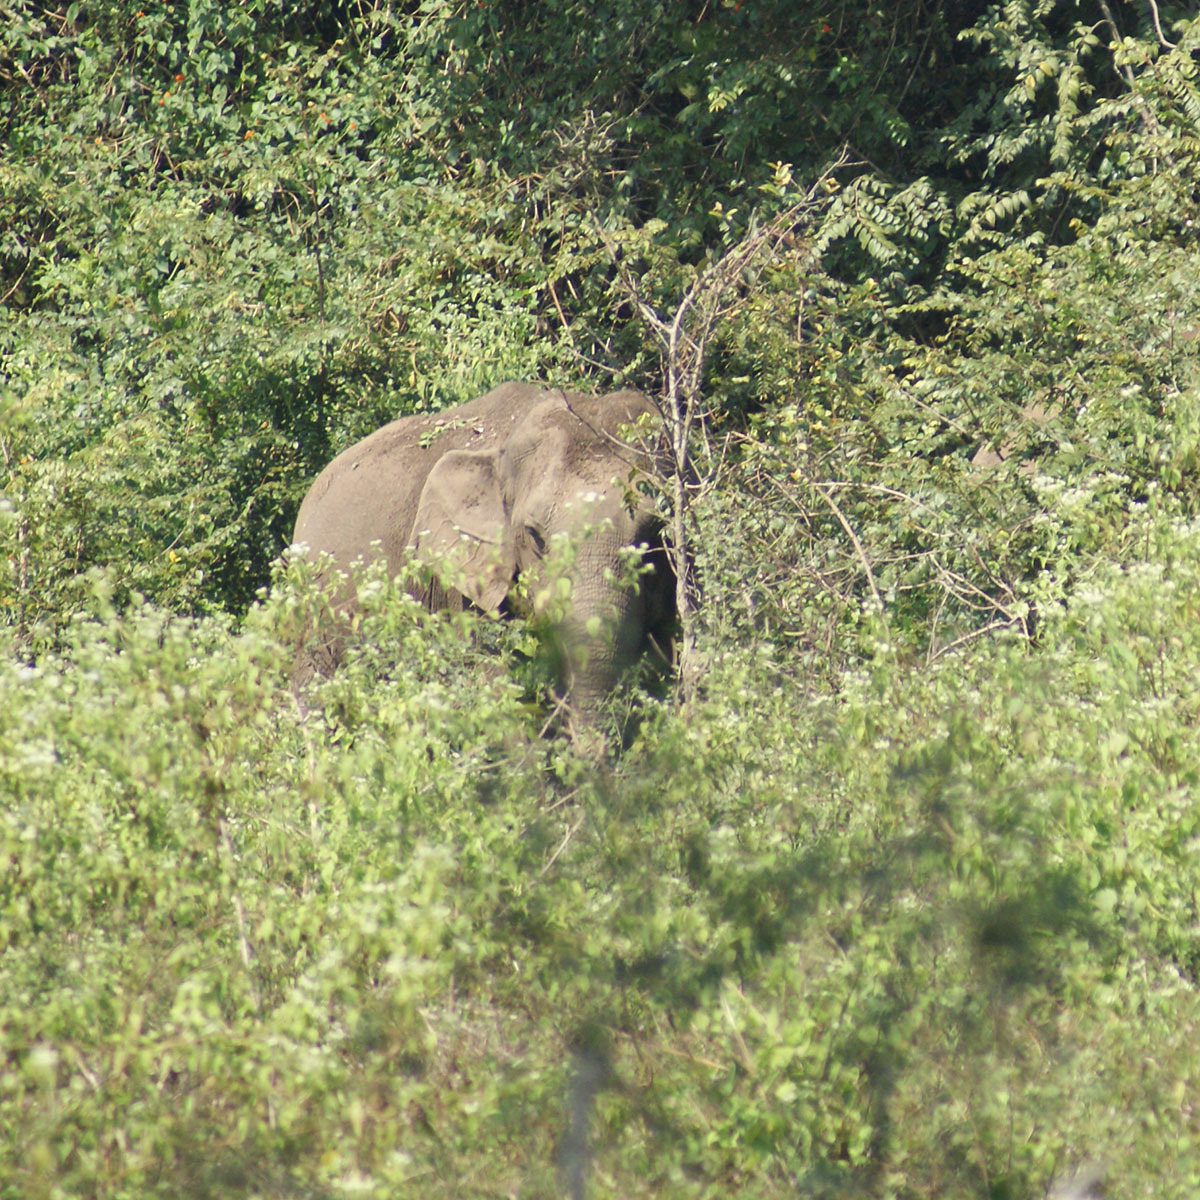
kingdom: Animalia
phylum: Chordata
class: Mammalia
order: Proboscidea
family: Elephantidae
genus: Elephas
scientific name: Elephas maximus
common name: Asian elephant
